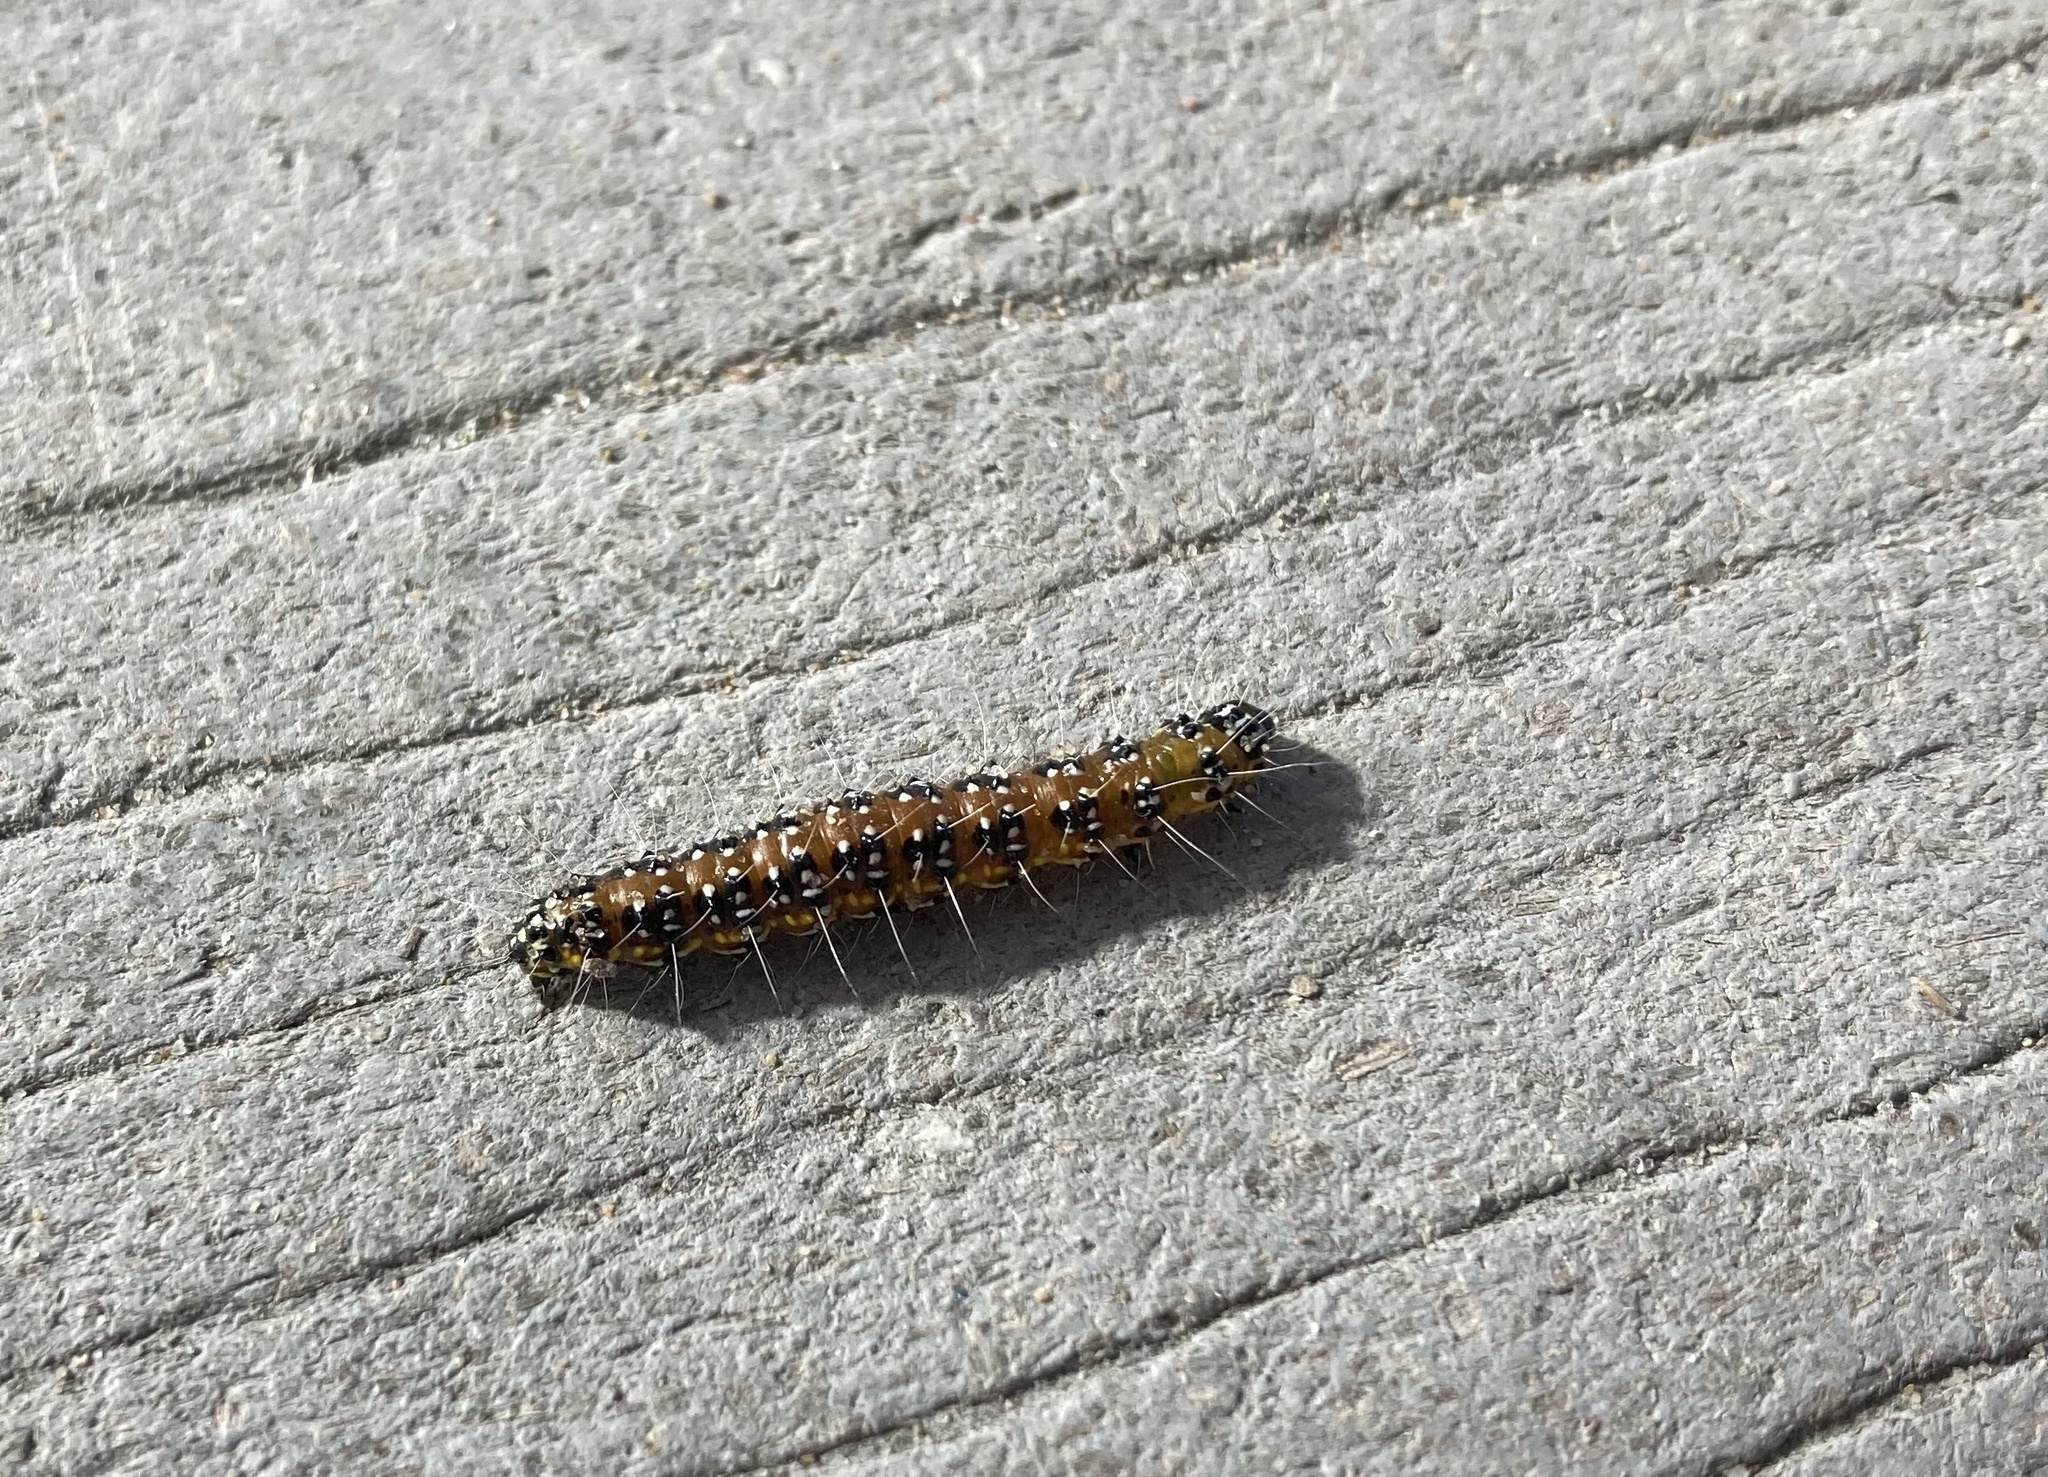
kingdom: Animalia
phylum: Arthropoda
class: Insecta
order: Lepidoptera
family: Crambidae
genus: Uresiphita
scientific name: Uresiphita reversalis
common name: Genista broom moth
